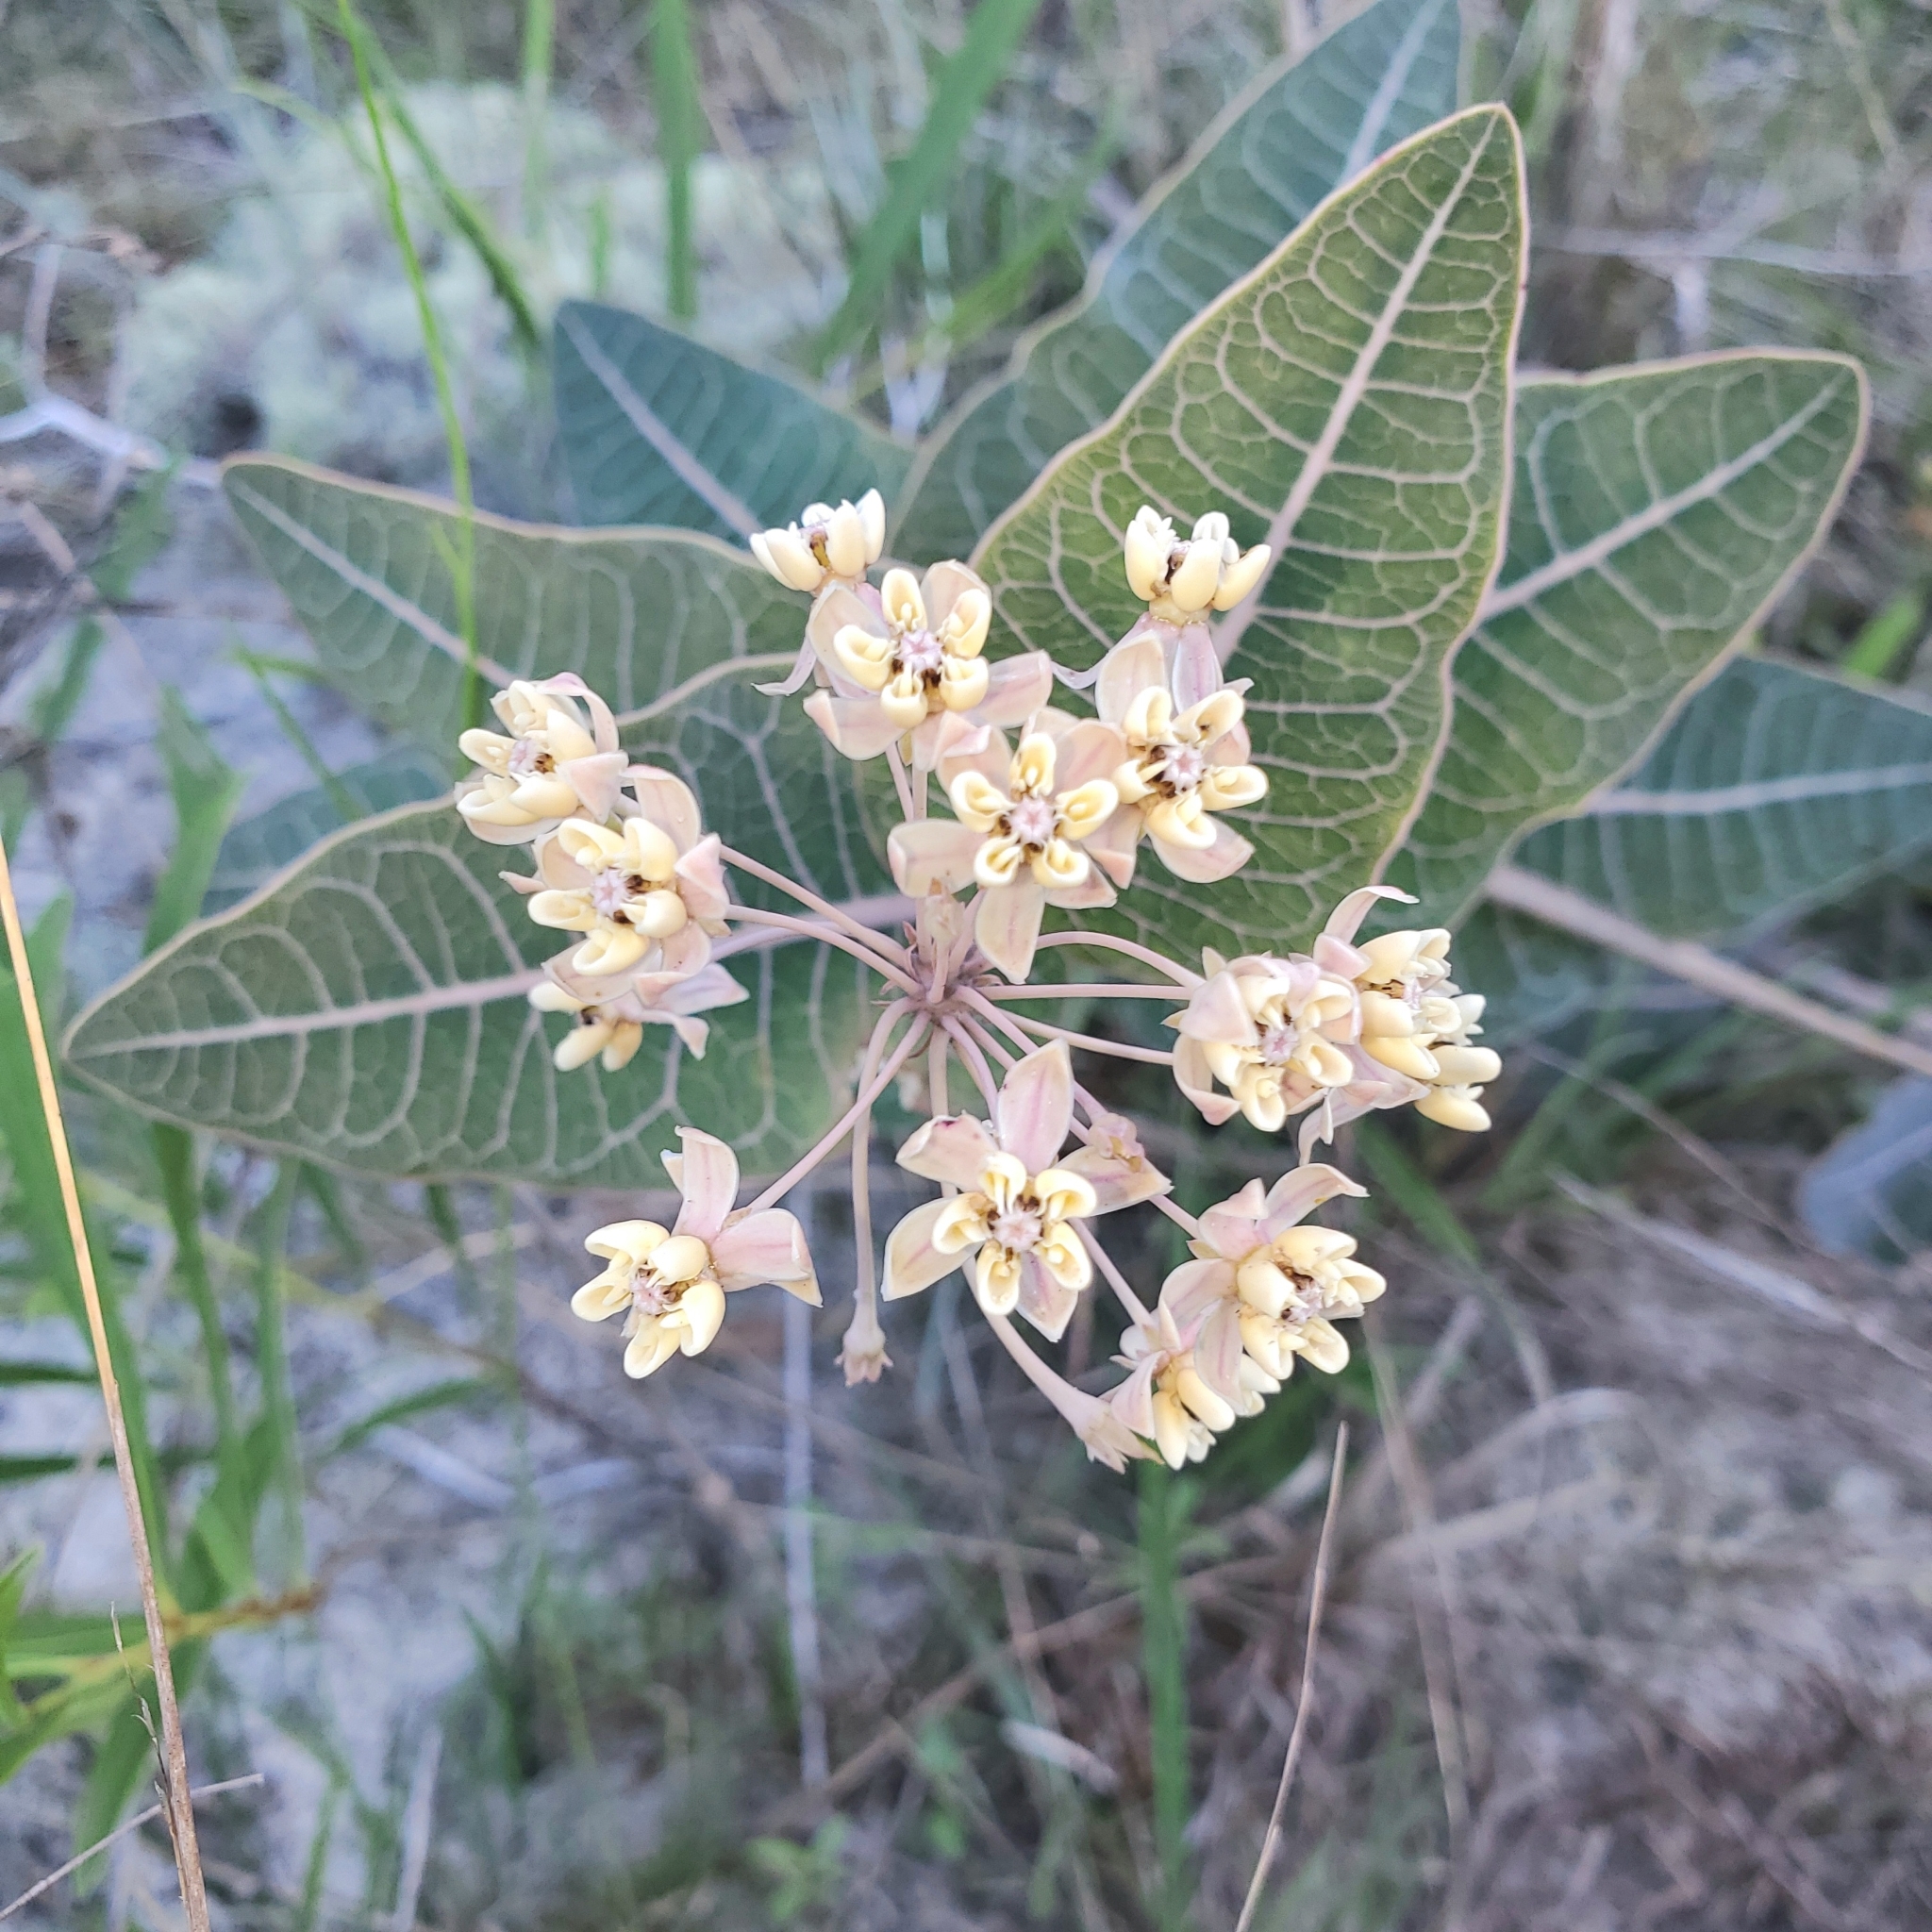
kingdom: Plantae
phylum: Tracheophyta
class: Magnoliopsida
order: Gentianales
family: Apocynaceae
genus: Asclepias
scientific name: Asclepias humistrata
